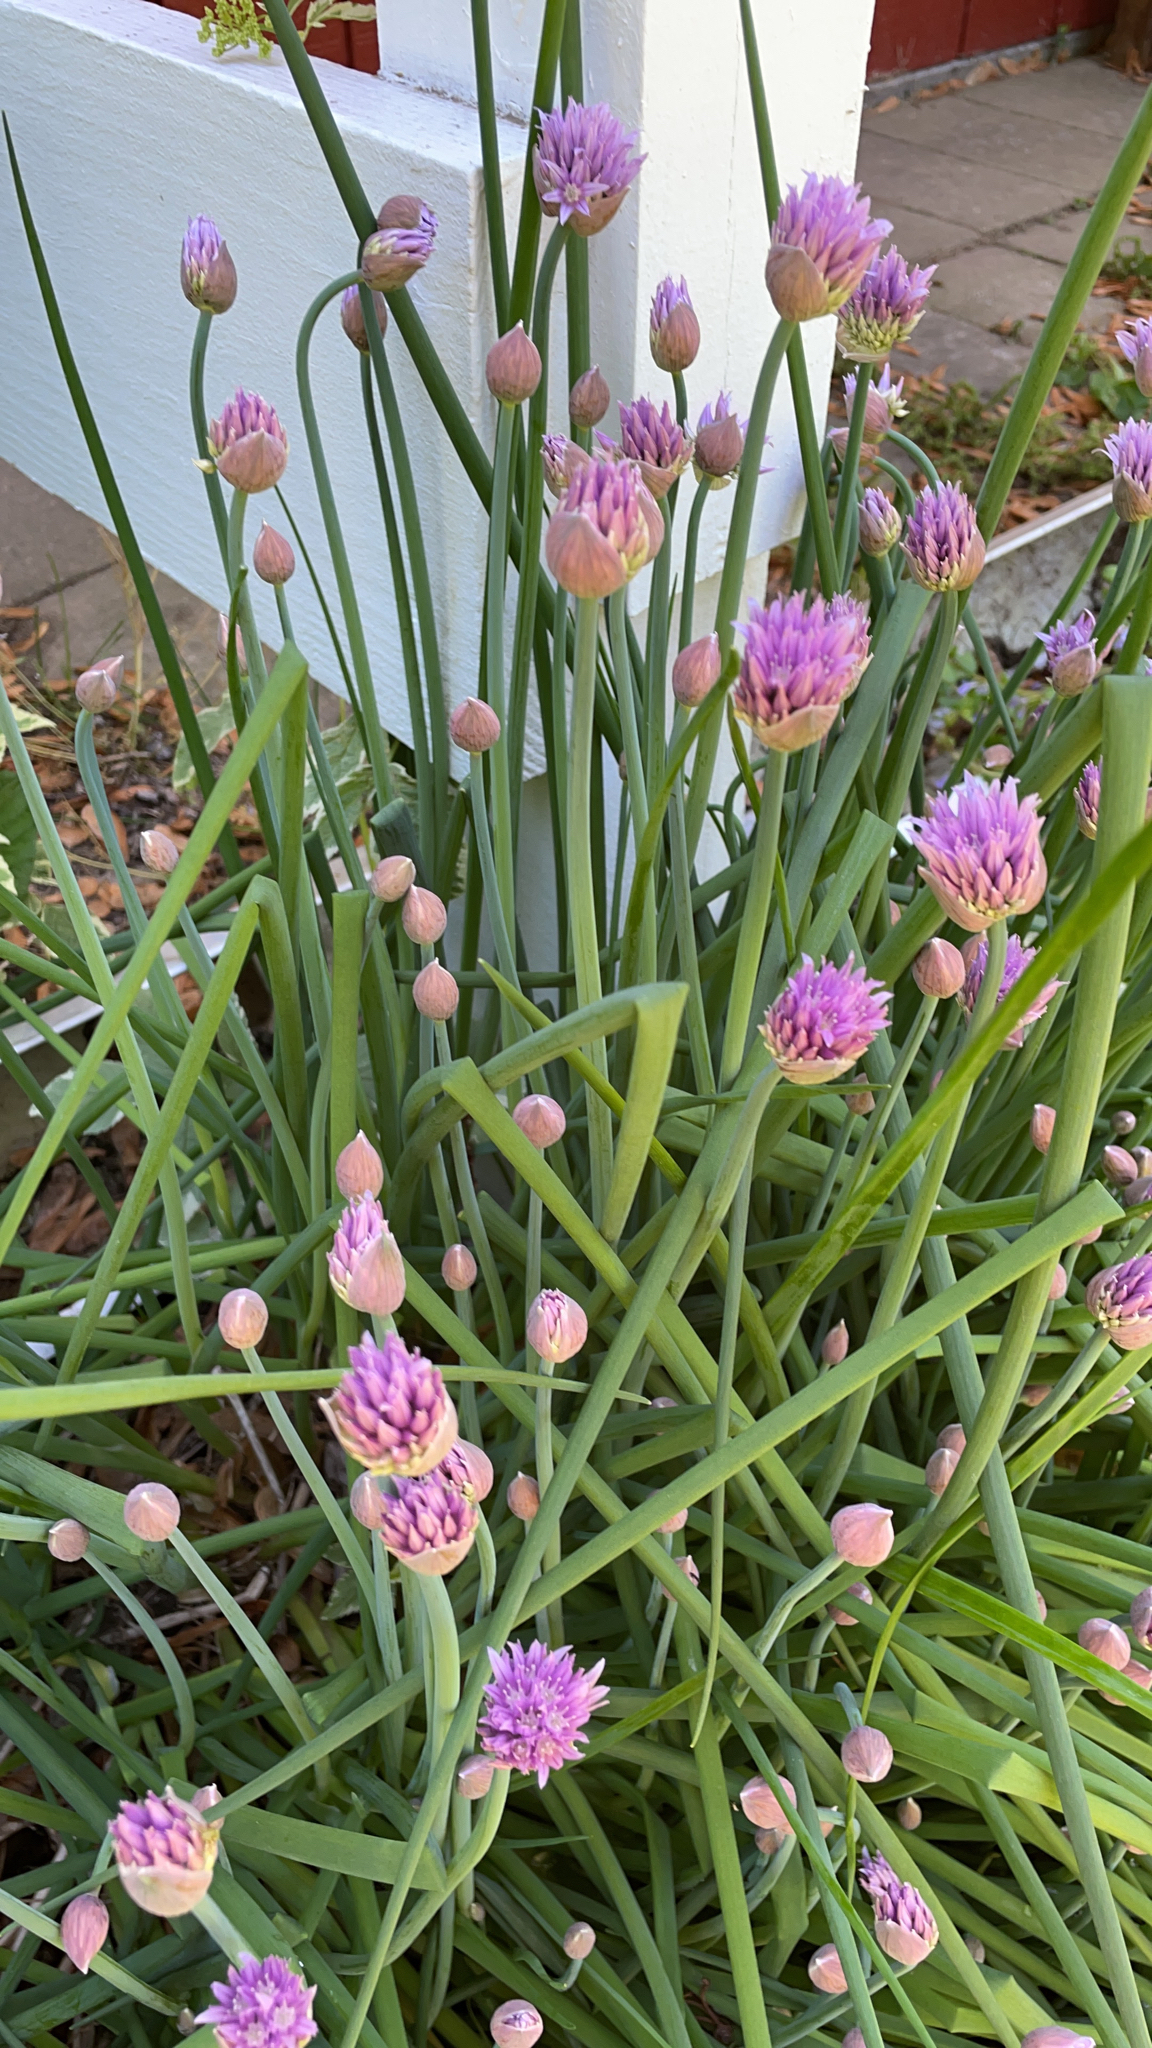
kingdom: Plantae
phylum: Tracheophyta
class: Liliopsida
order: Asparagales
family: Amaryllidaceae
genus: Allium
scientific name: Allium schoenoprasum
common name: Chives
